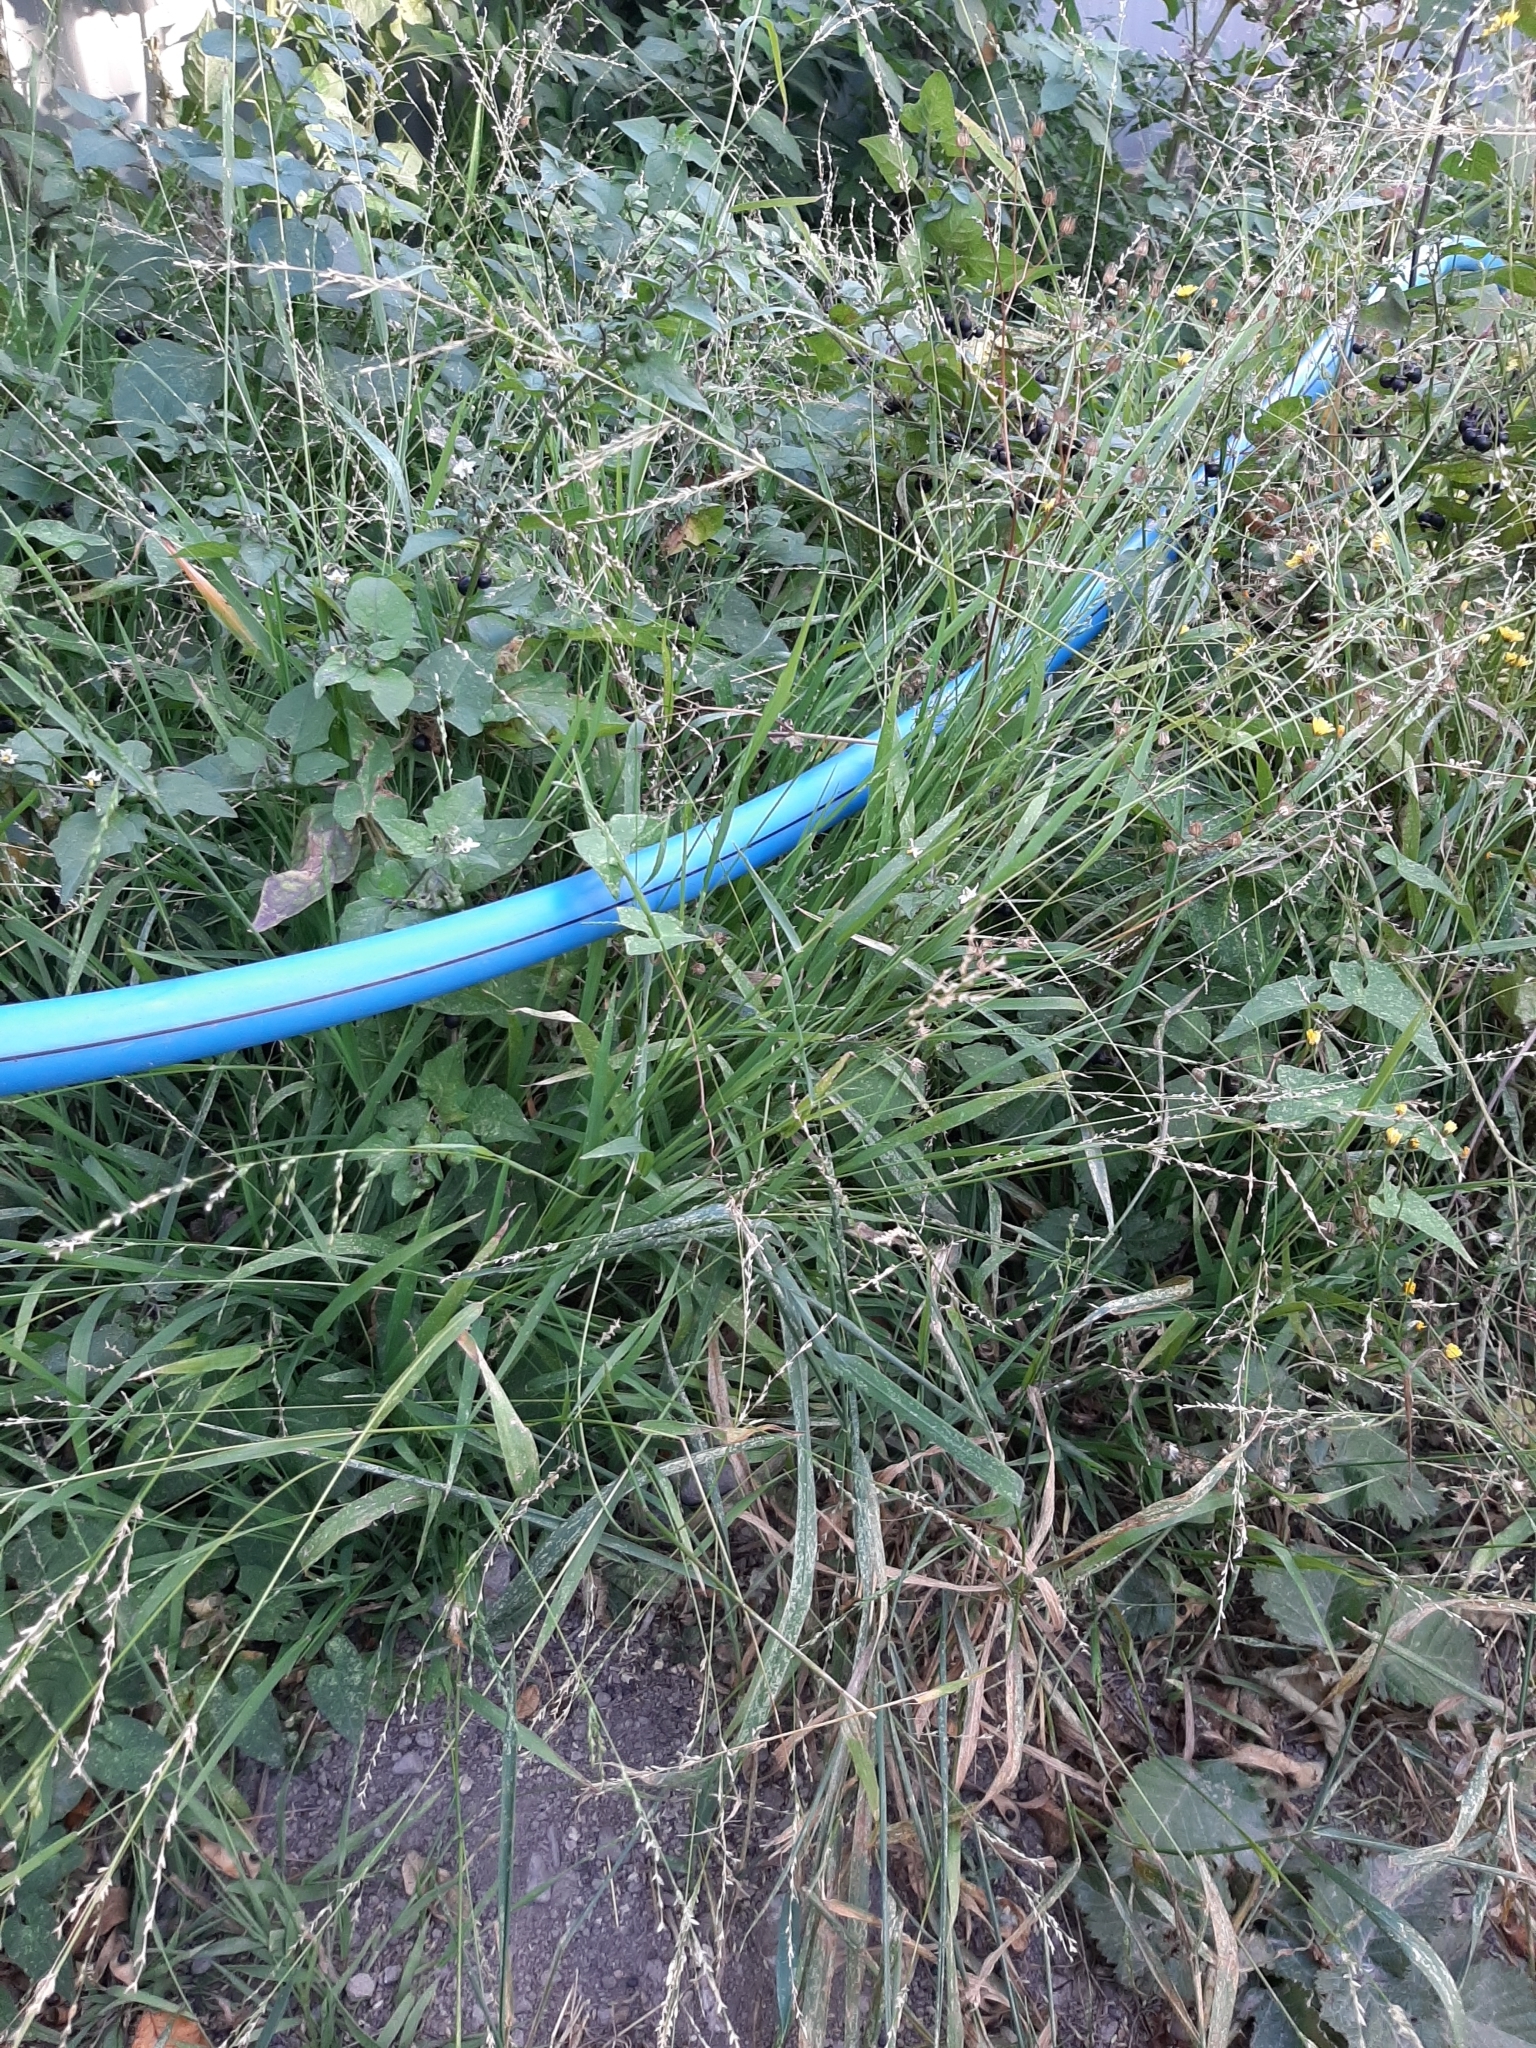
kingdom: Plantae
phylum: Tracheophyta
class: Liliopsida
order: Poales
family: Poaceae
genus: Ehrharta
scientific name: Ehrharta erecta
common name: Panic veldtgrass
